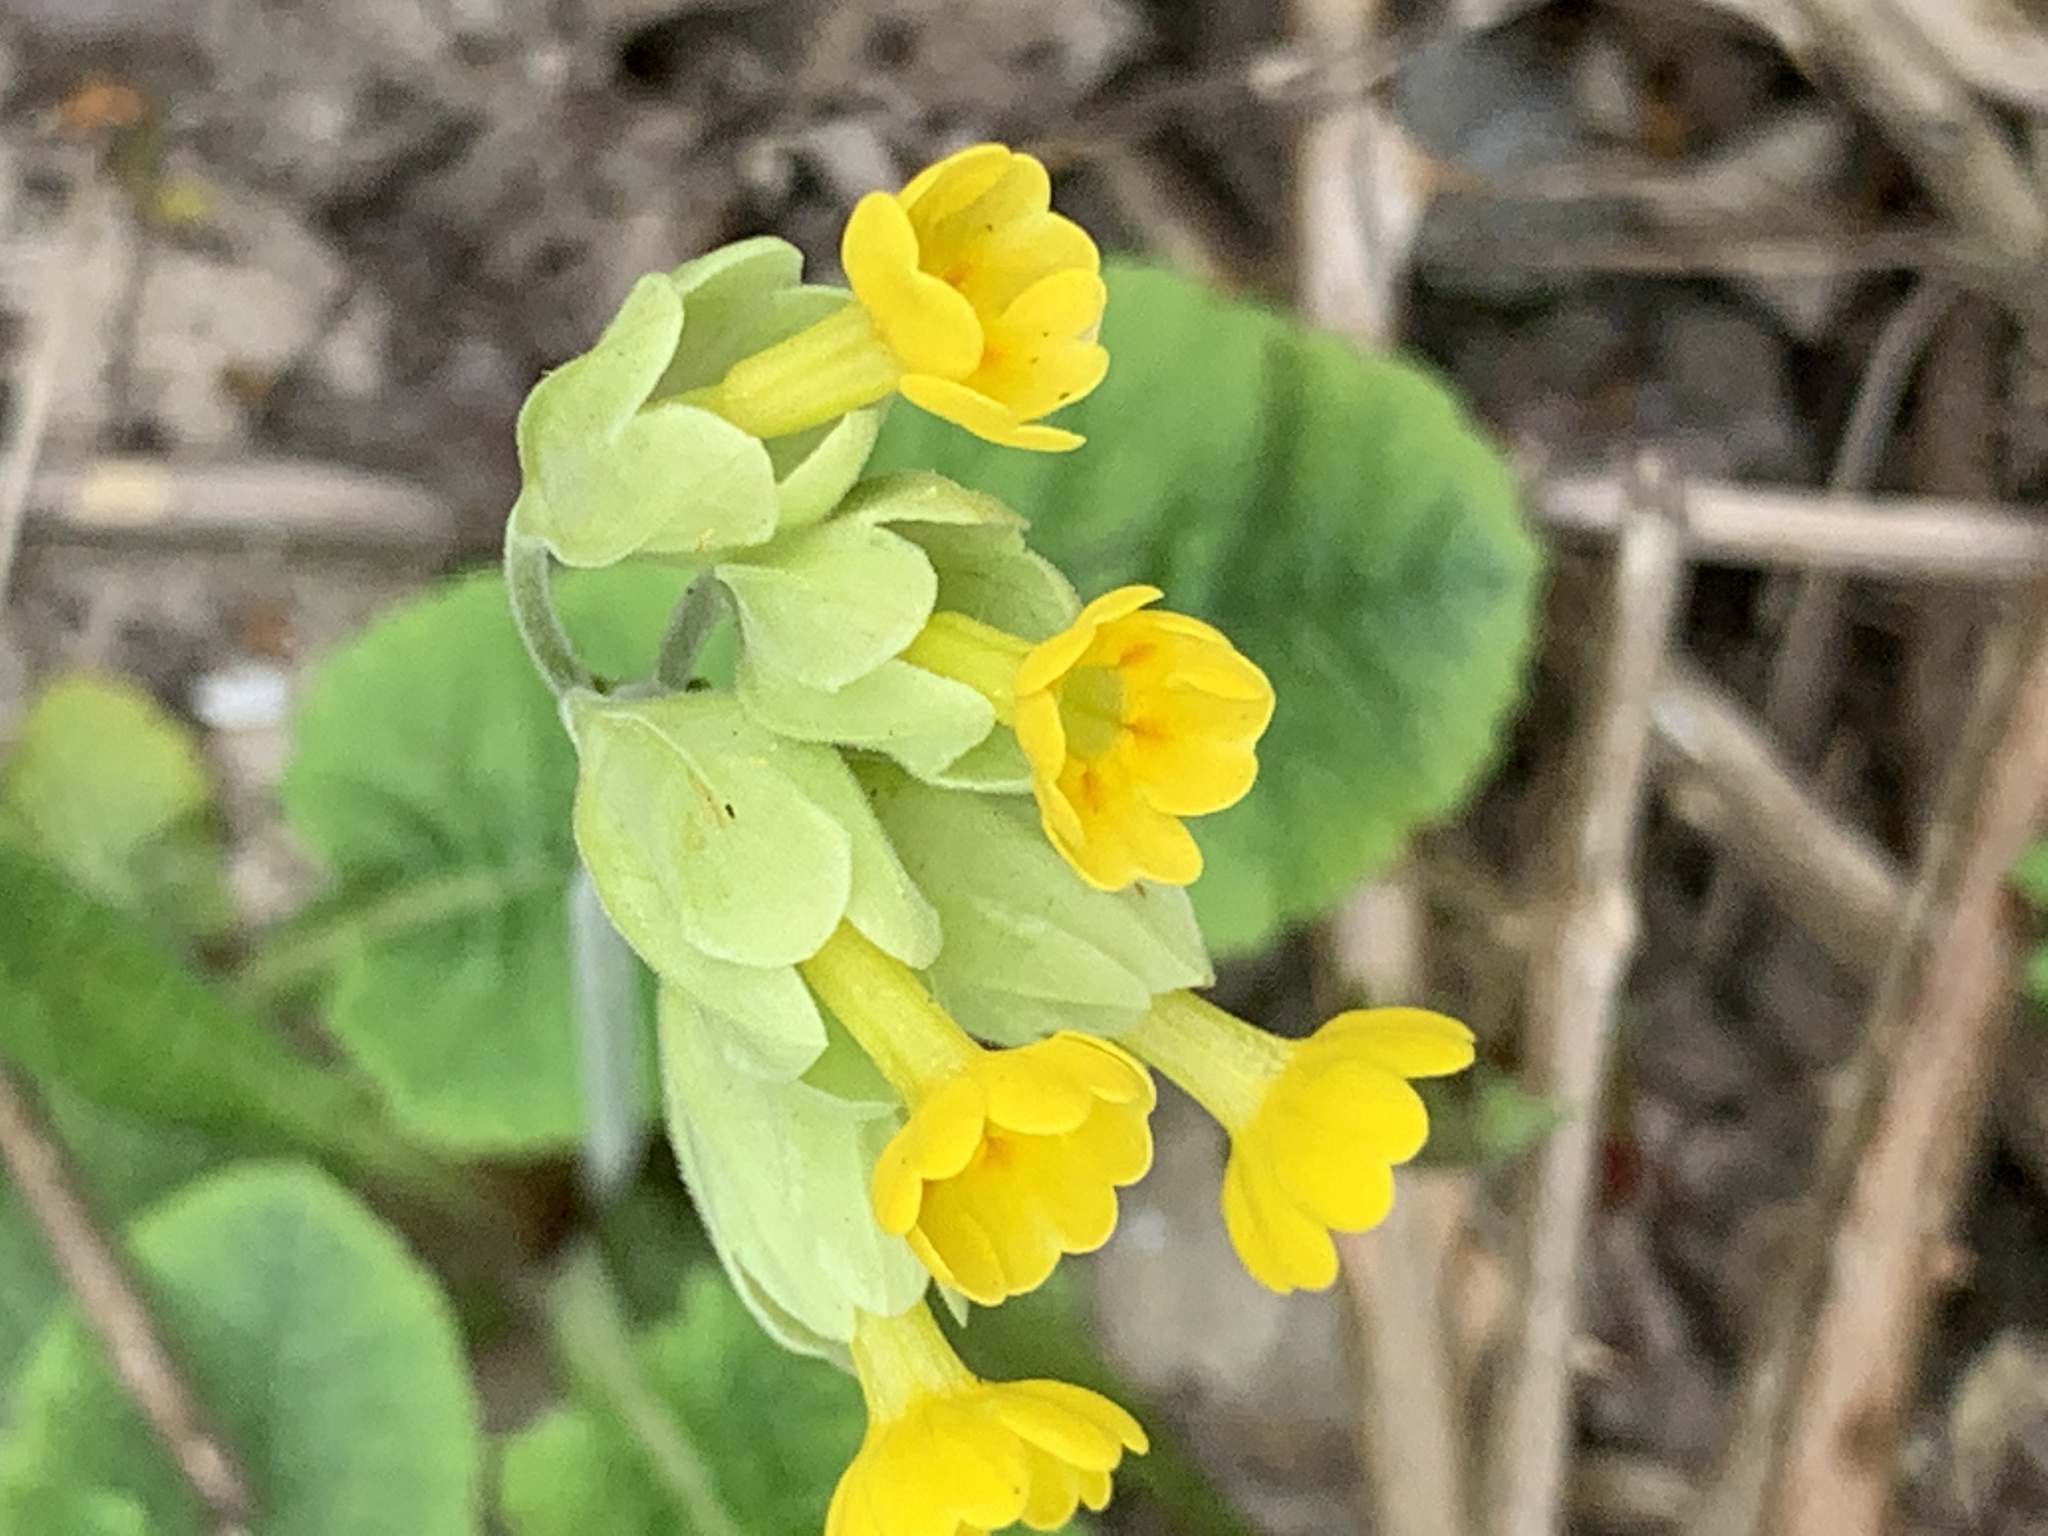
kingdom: Plantae
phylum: Tracheophyta
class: Magnoliopsida
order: Ericales
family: Primulaceae
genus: Primula
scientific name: Primula veris
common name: Cowslip
